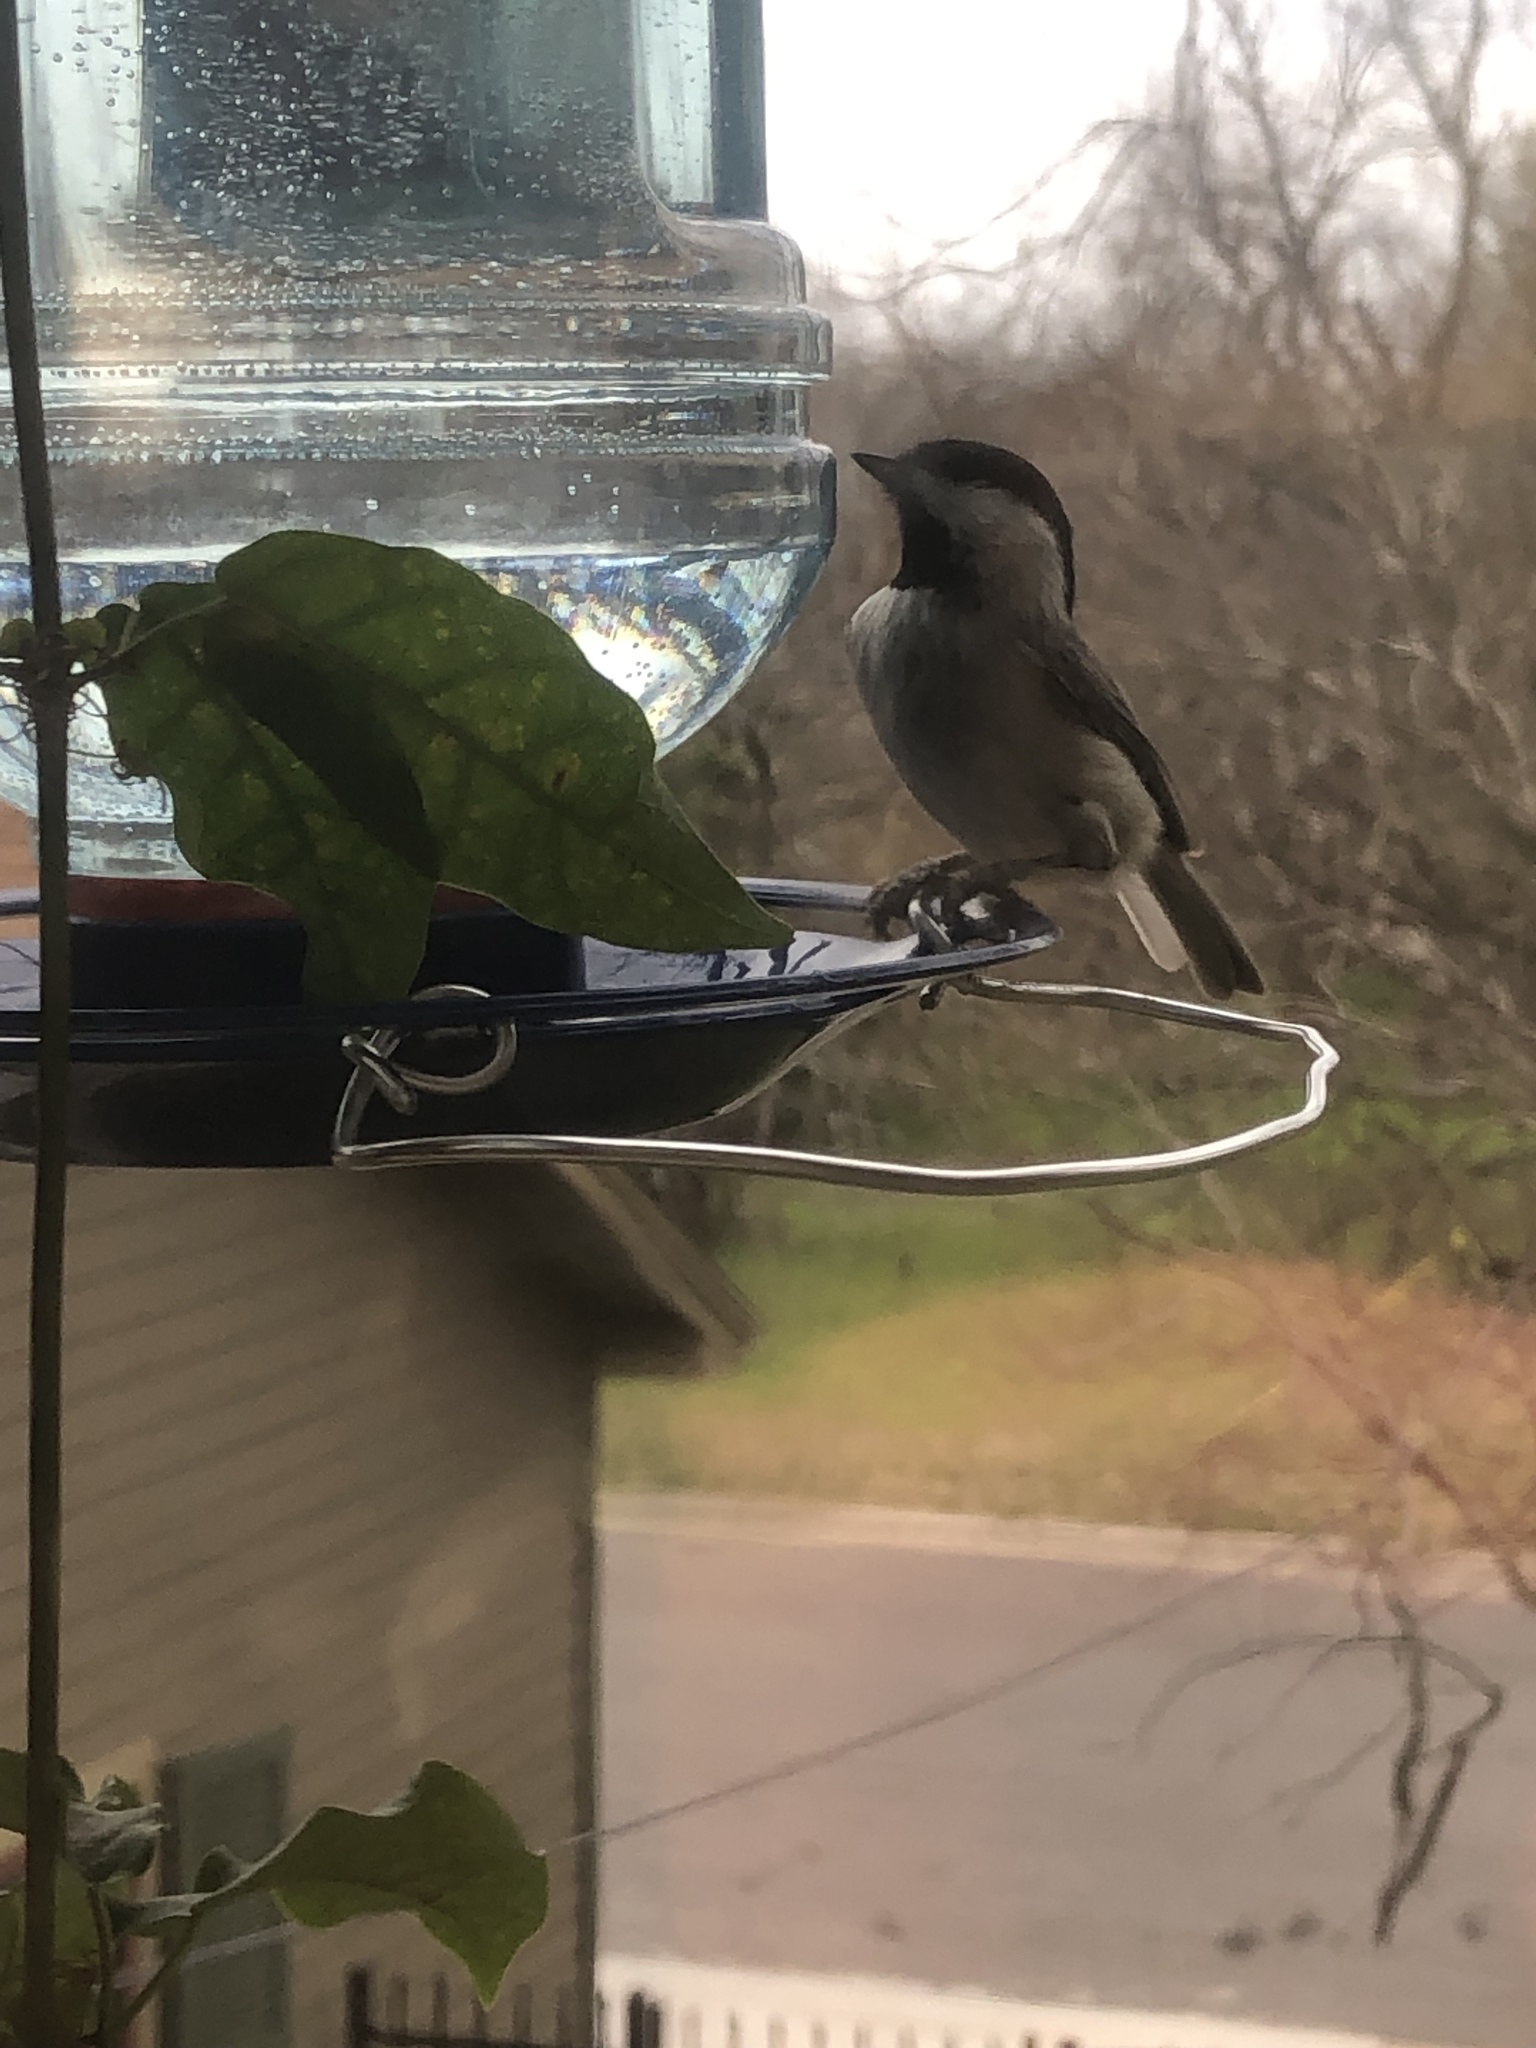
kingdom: Animalia
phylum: Chordata
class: Aves
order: Passeriformes
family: Paridae
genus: Poecile
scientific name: Poecile carolinensis
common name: Carolina chickadee
